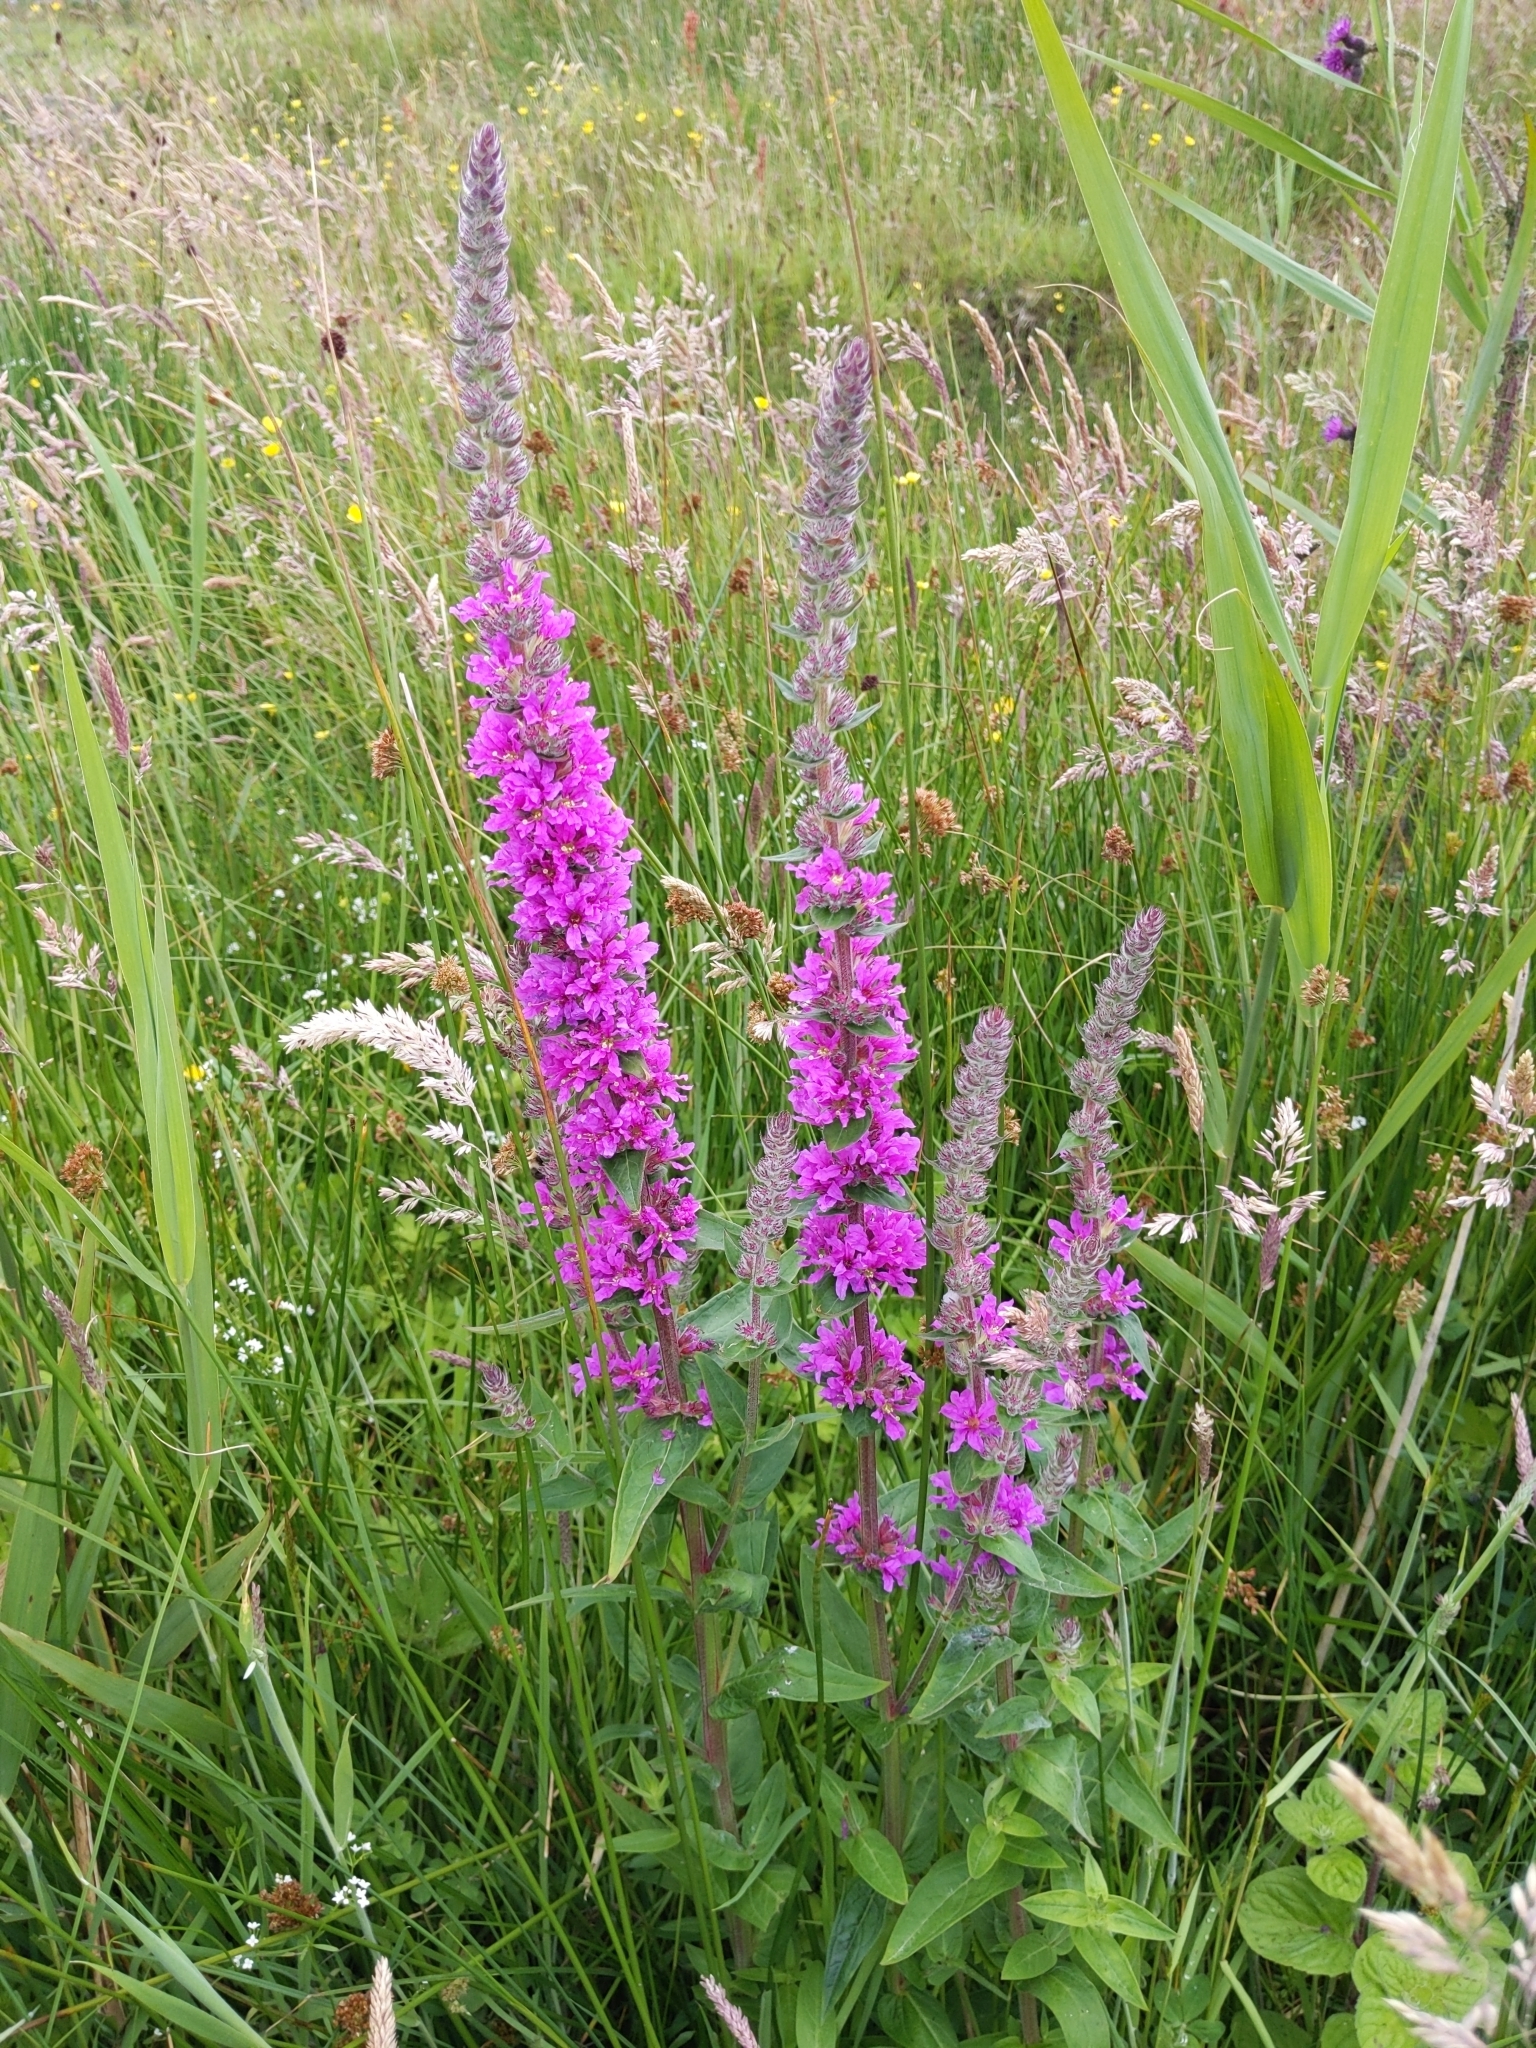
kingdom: Plantae
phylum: Tracheophyta
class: Magnoliopsida
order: Myrtales
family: Lythraceae
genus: Lythrum
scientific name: Lythrum salicaria
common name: Purple loosestrife
